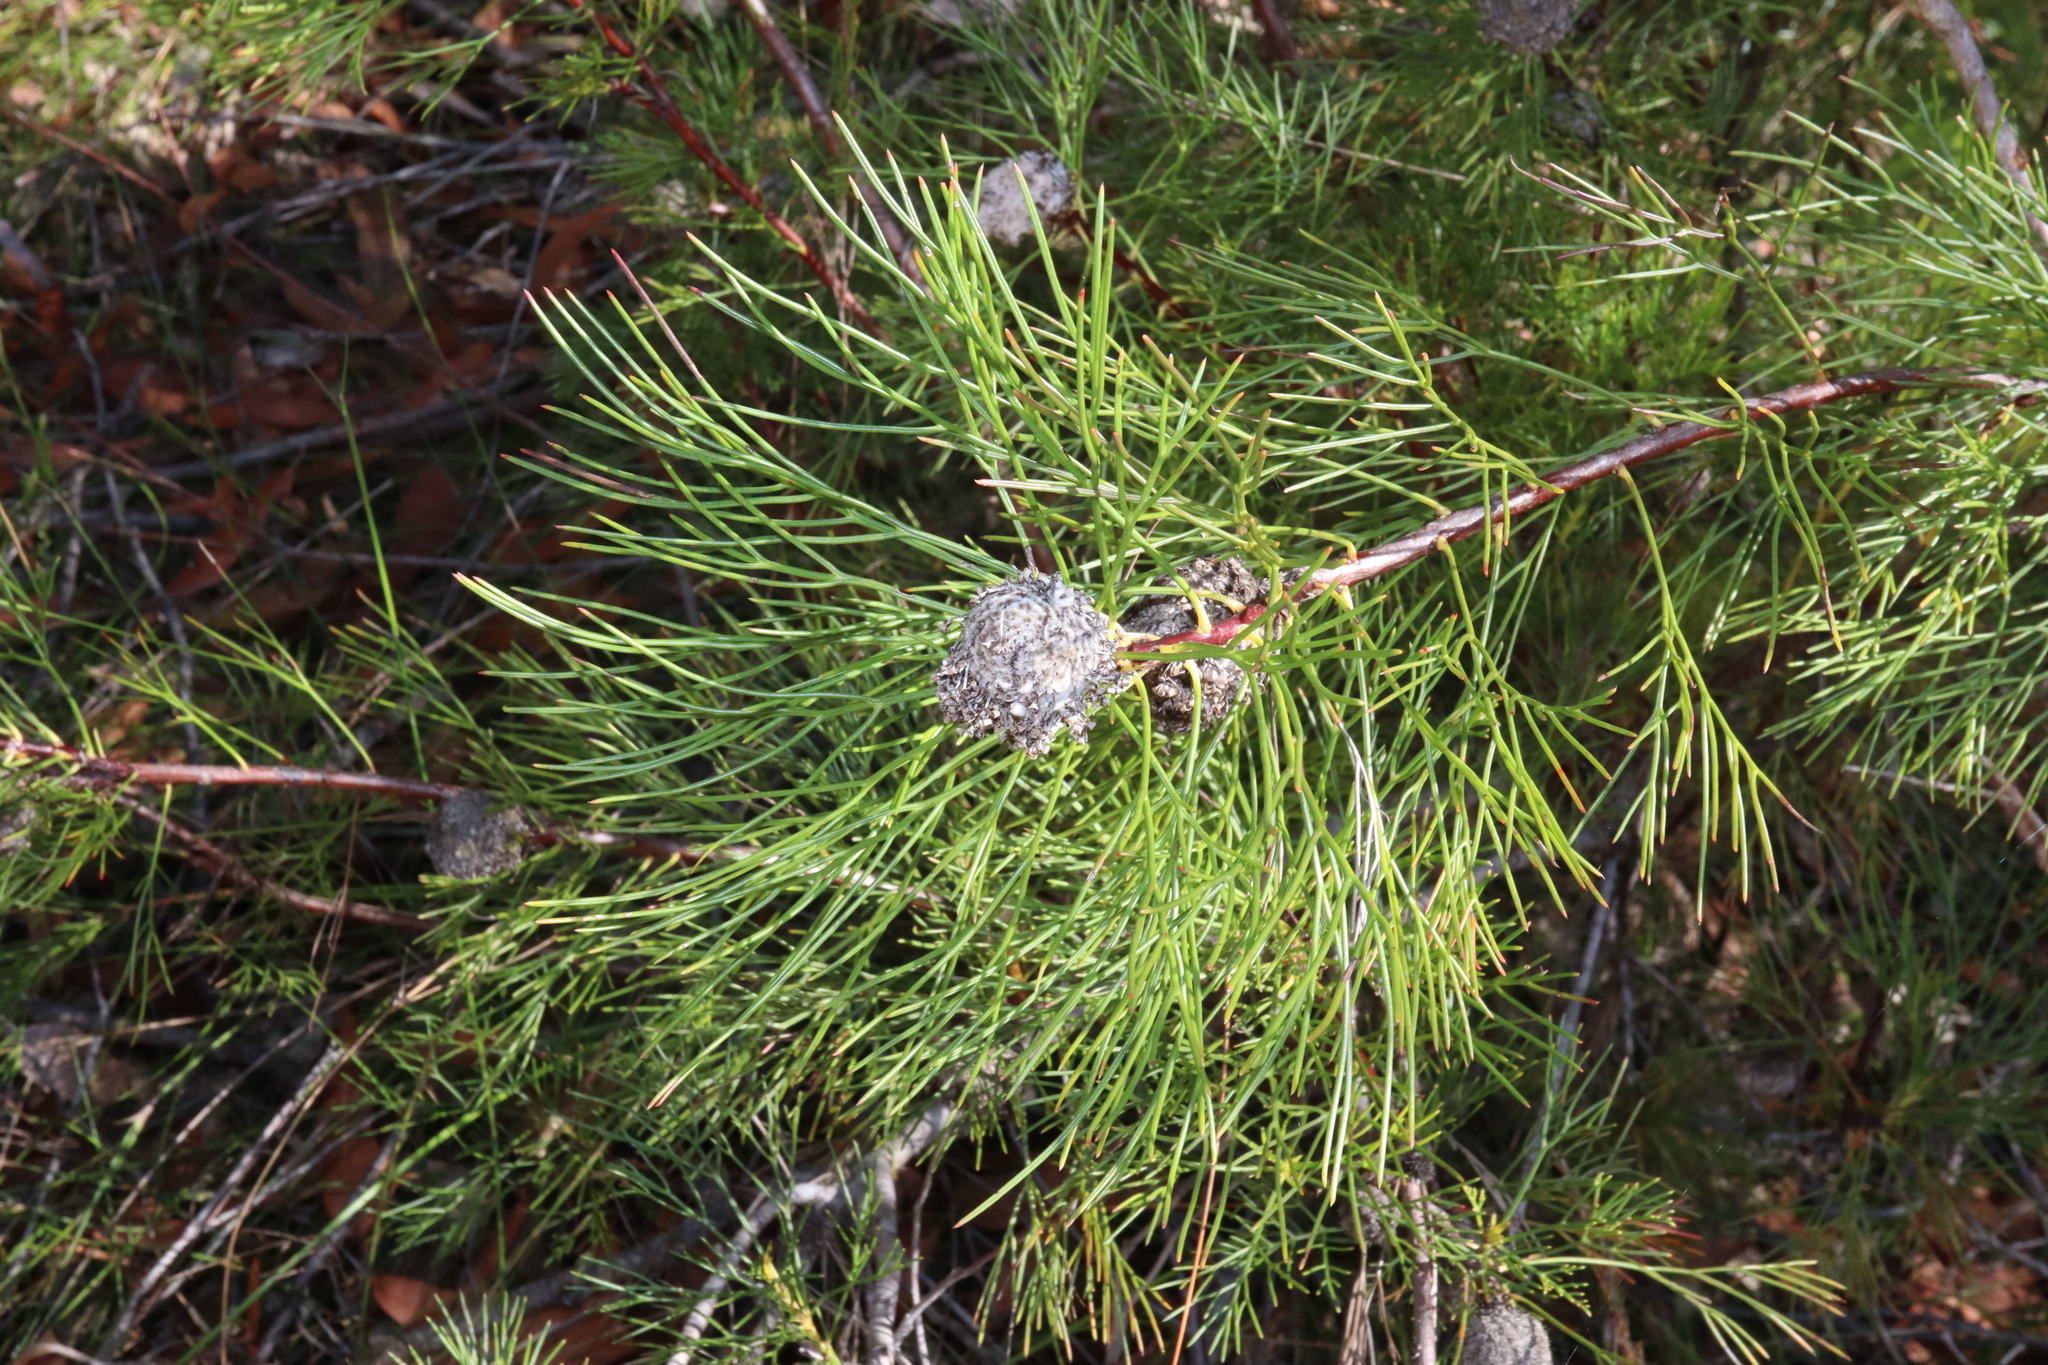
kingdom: Plantae
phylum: Tracheophyta
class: Magnoliopsida
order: Proteales
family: Proteaceae
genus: Isopogon
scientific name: Isopogon anethifolius
